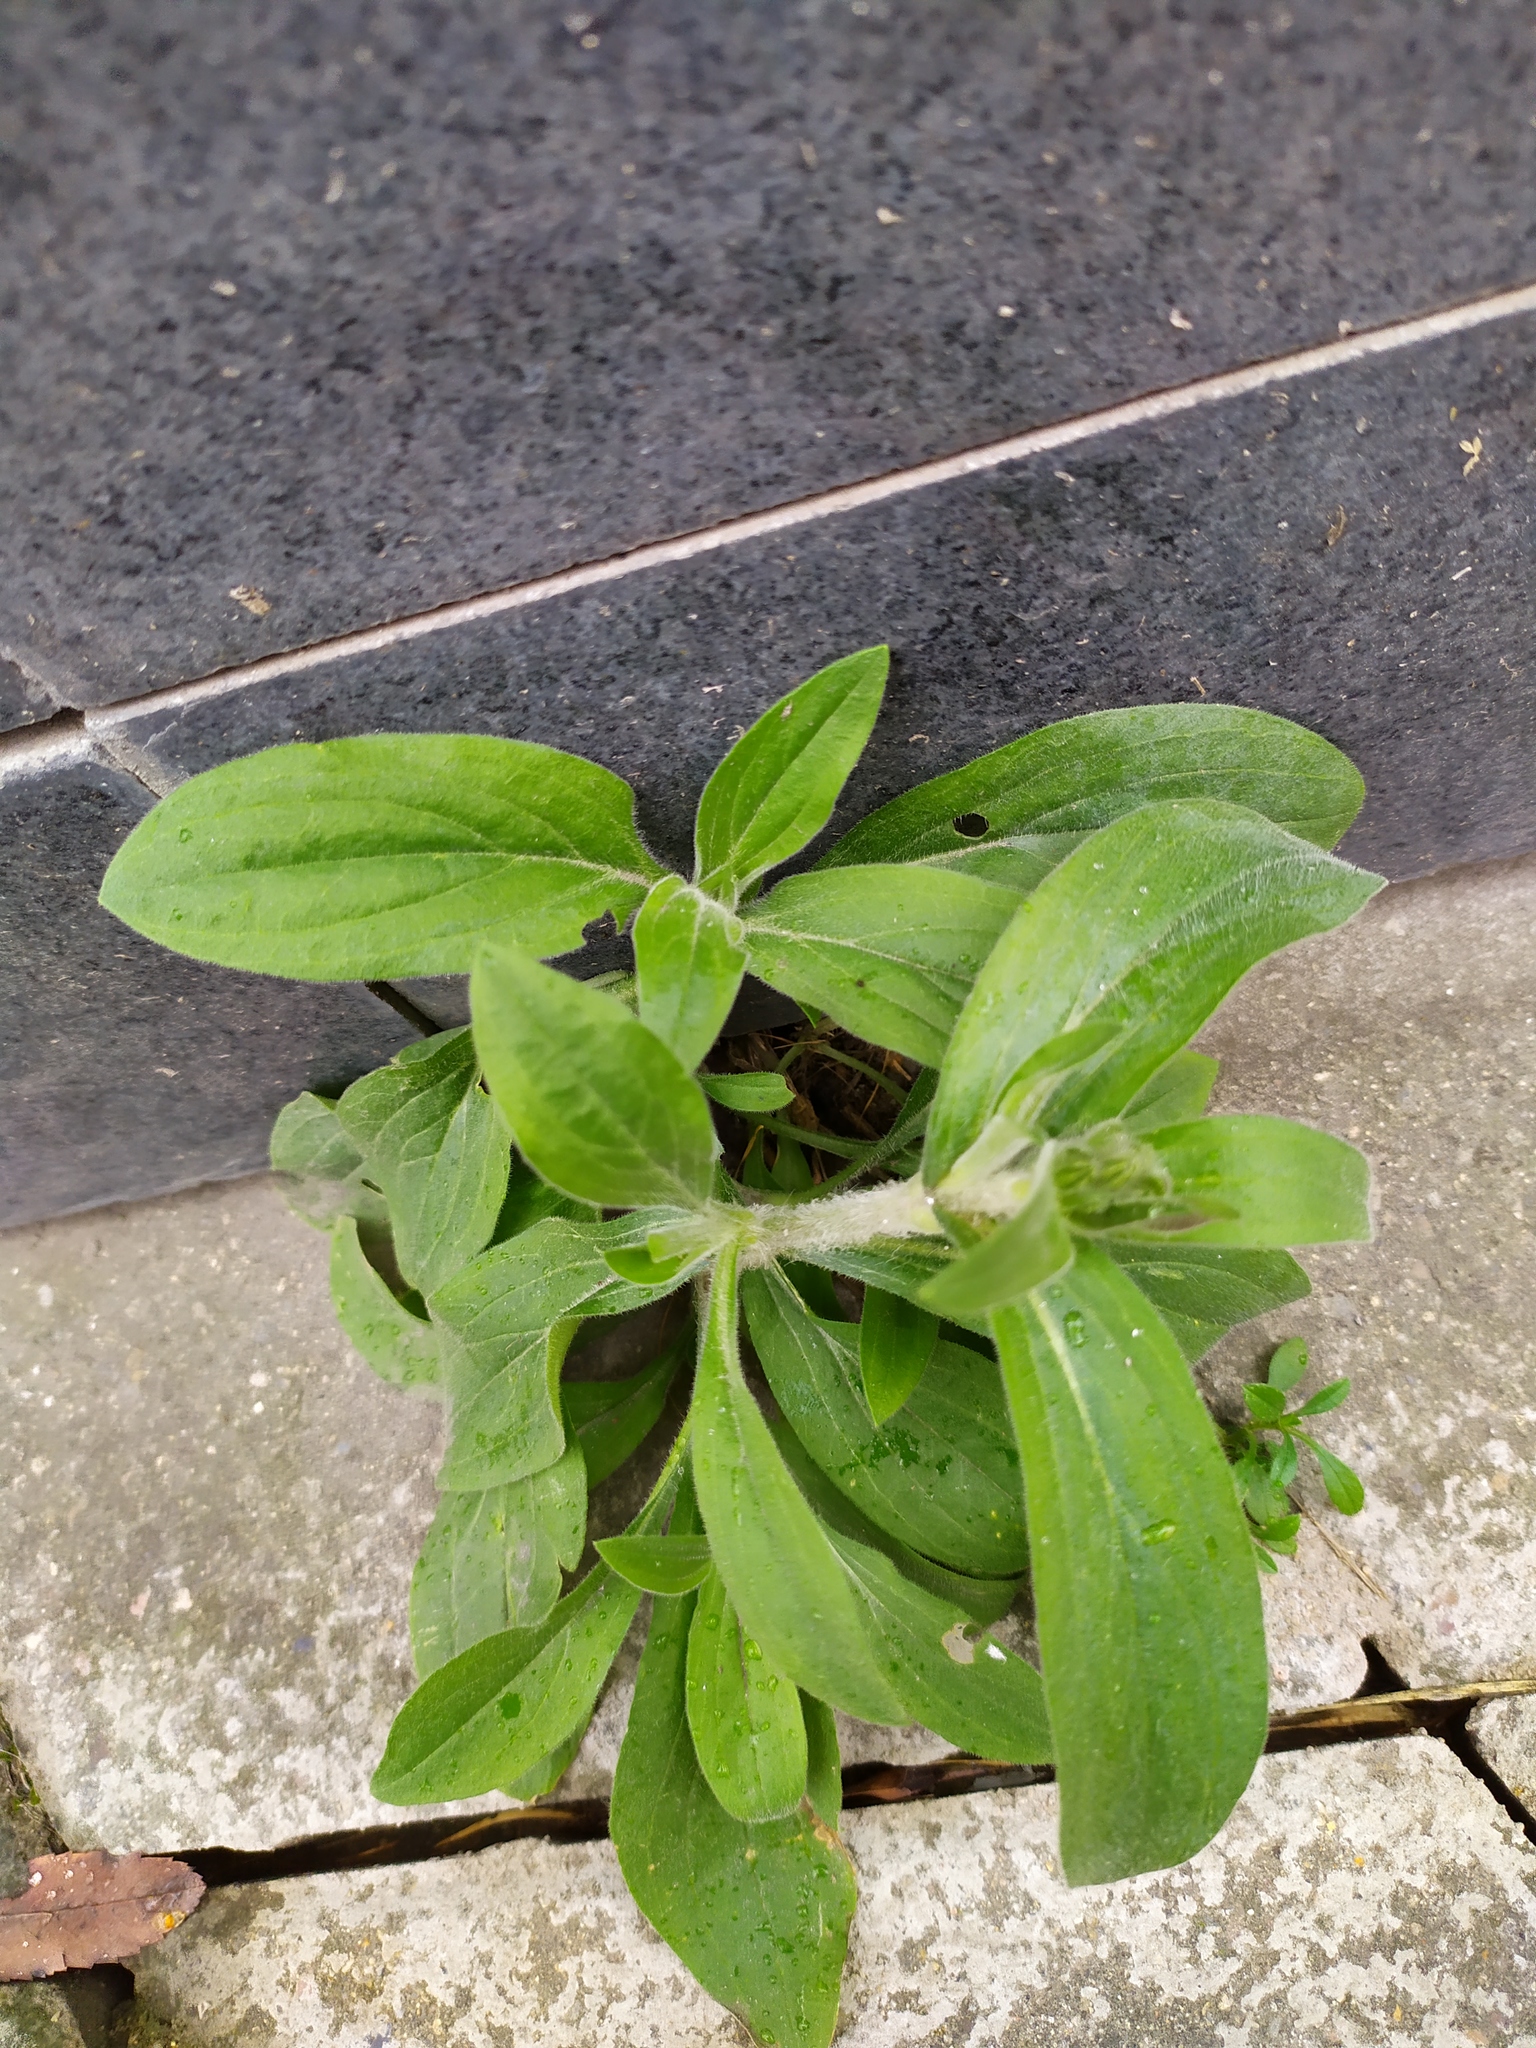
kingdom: Plantae
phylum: Tracheophyta
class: Magnoliopsida
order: Caryophyllales
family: Caryophyllaceae
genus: Silene
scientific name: Silene latifolia
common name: White campion
